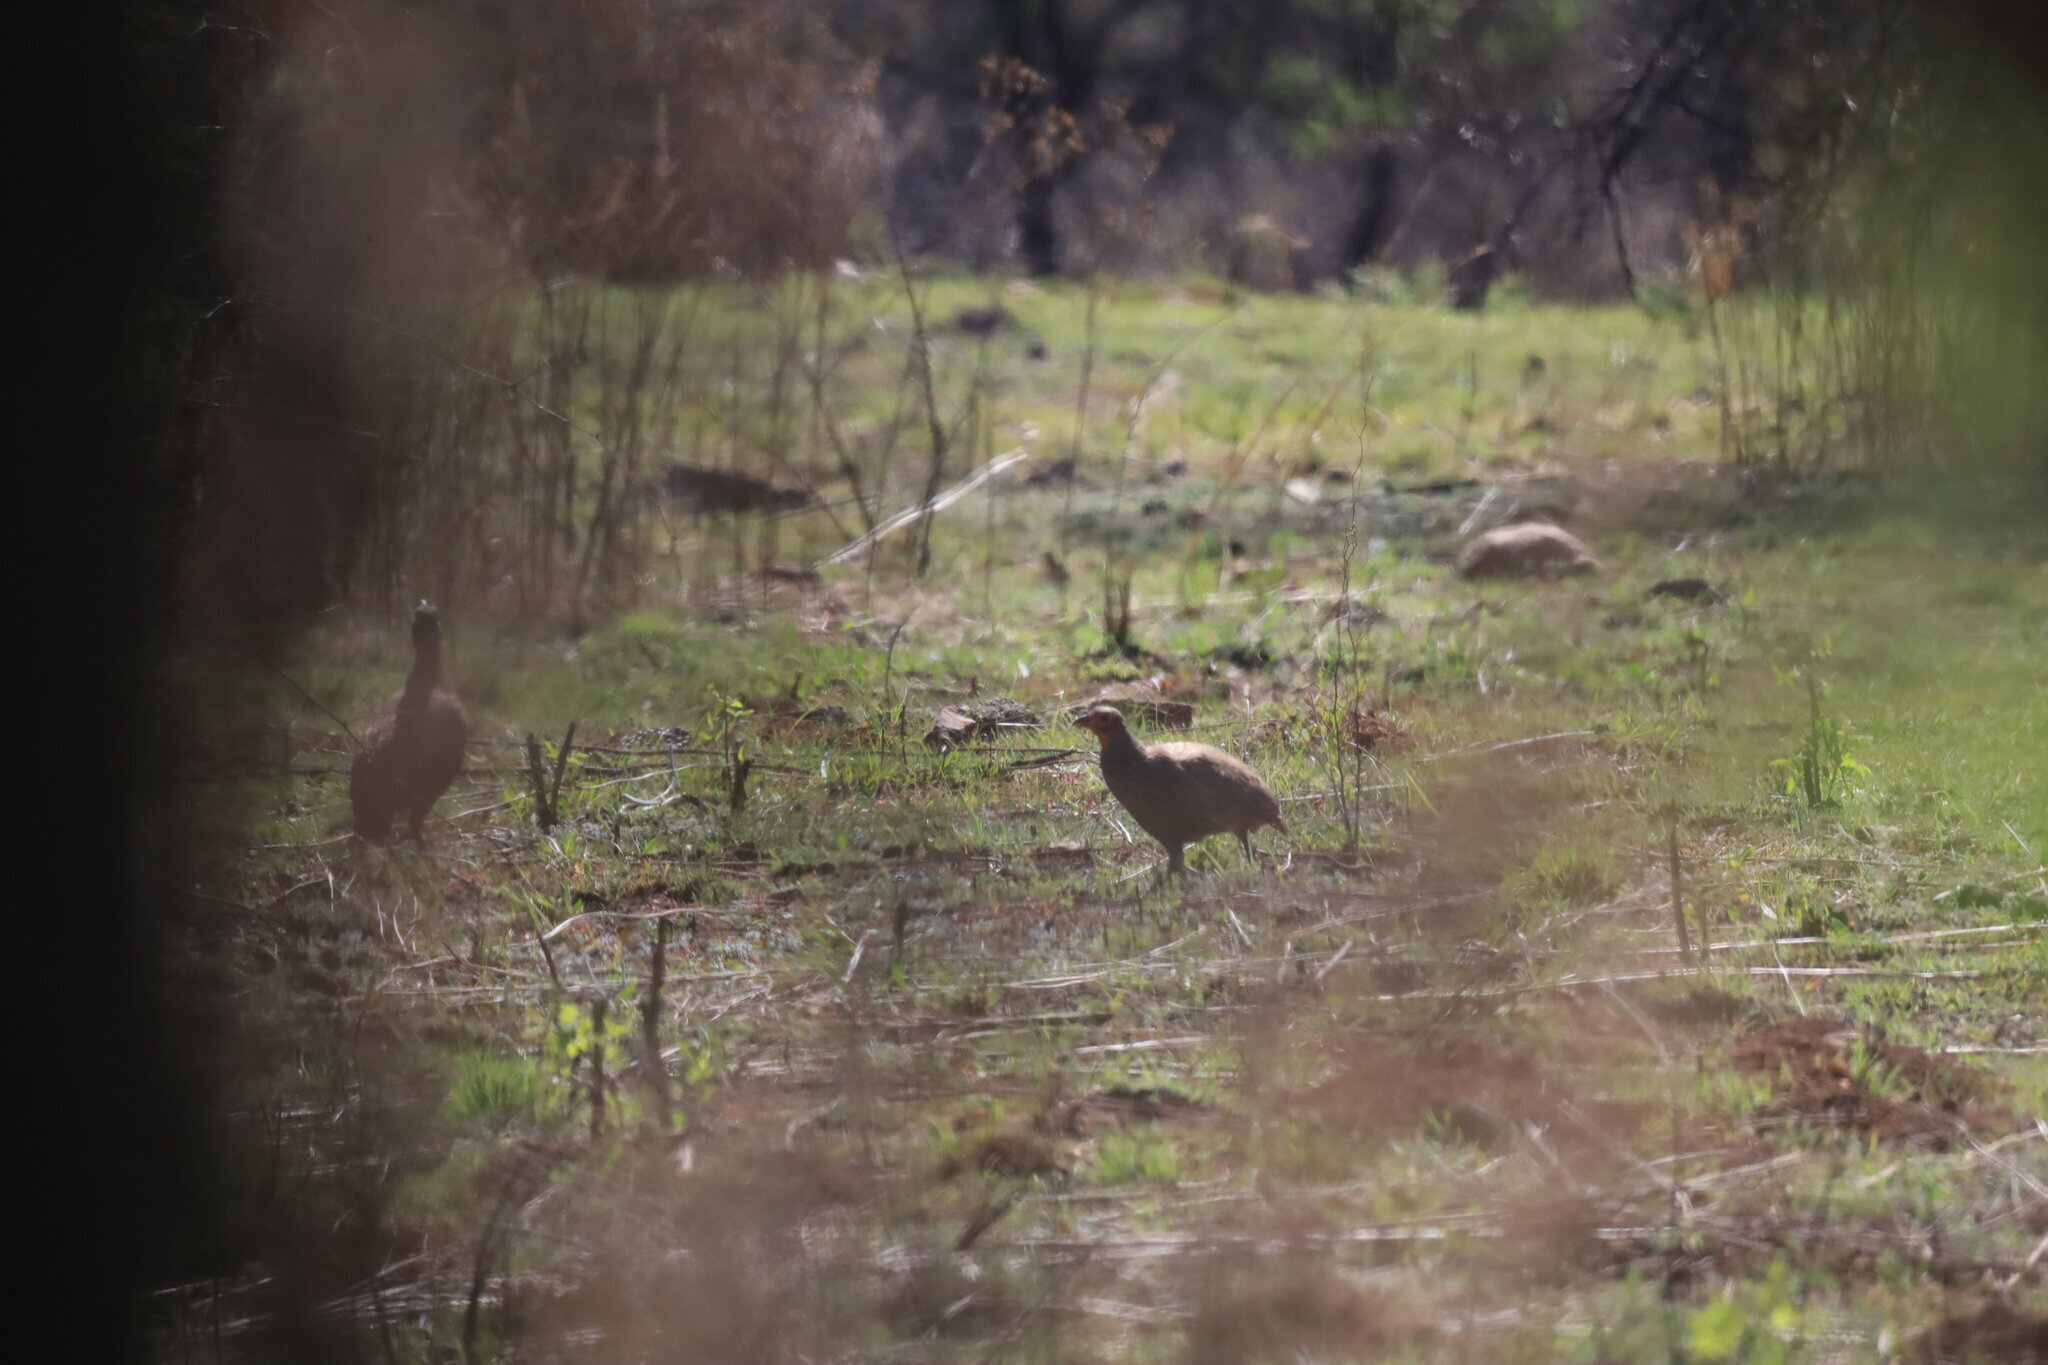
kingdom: Animalia
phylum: Chordata
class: Aves
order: Galliformes
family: Phasianidae
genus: Pternistis
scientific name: Pternistis swainsonii
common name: Swainson's spurfowl
